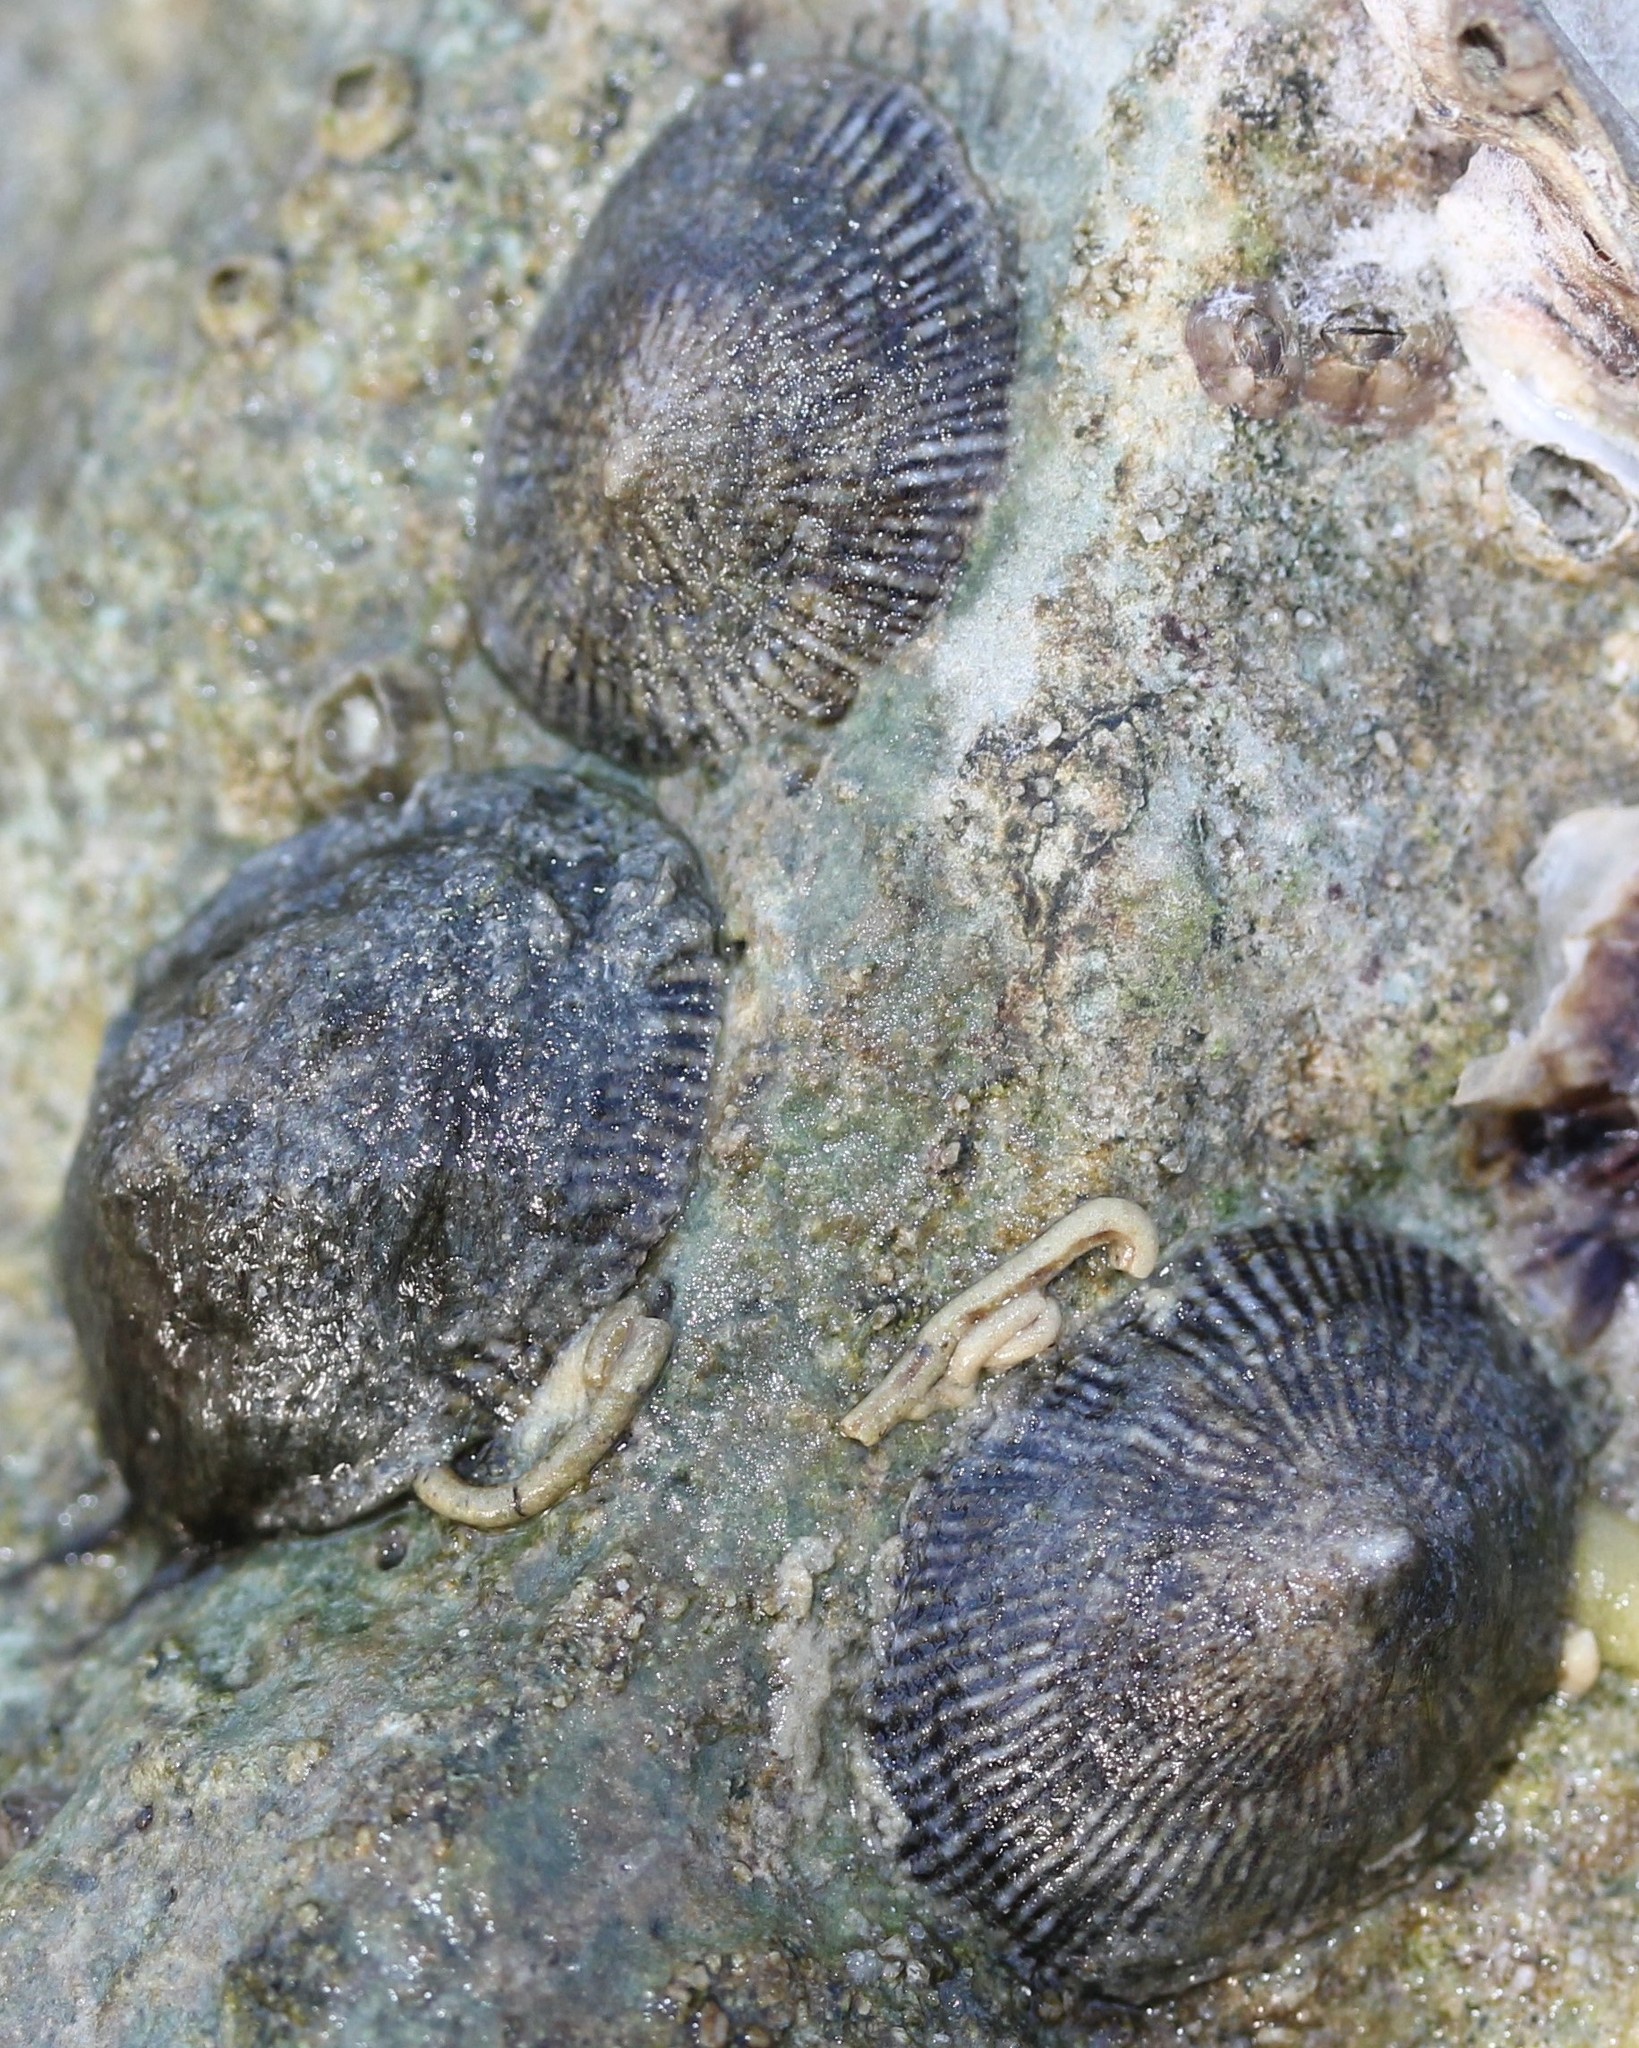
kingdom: Animalia
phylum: Mollusca
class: Gastropoda
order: Siphonariida
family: Siphonariidae
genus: Siphonaria
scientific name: Siphonaria naufragum
